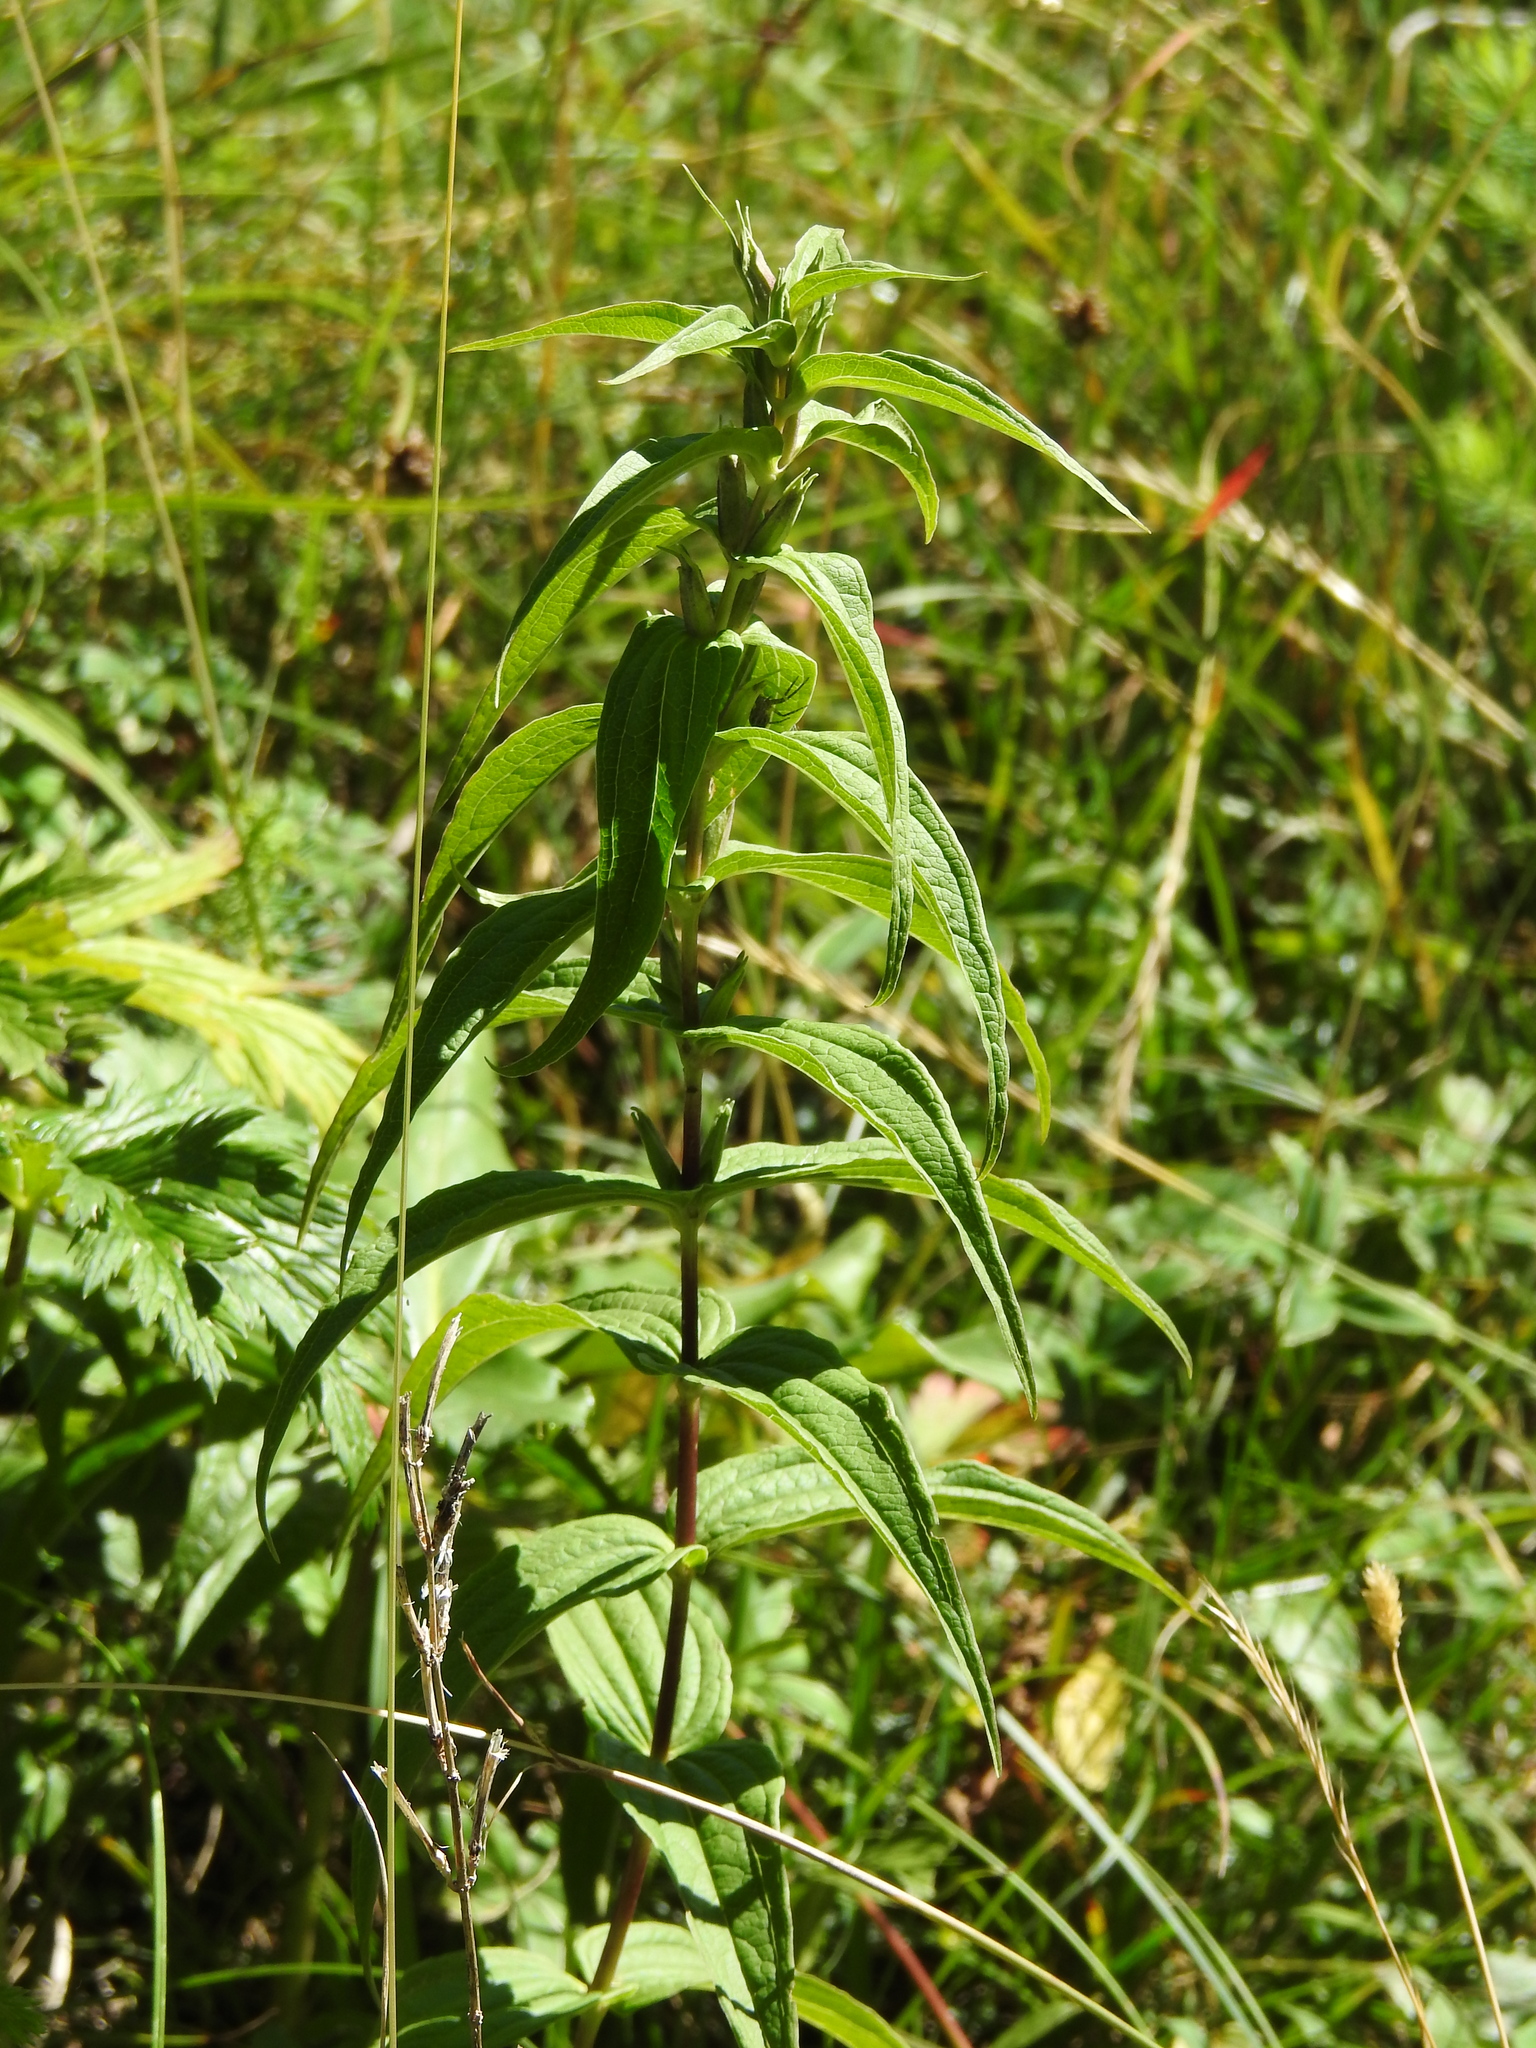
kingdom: Plantae
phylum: Tracheophyta
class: Magnoliopsida
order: Gentianales
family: Gentianaceae
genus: Gentiana
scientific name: Gentiana asclepiadea
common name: Willow gentian
